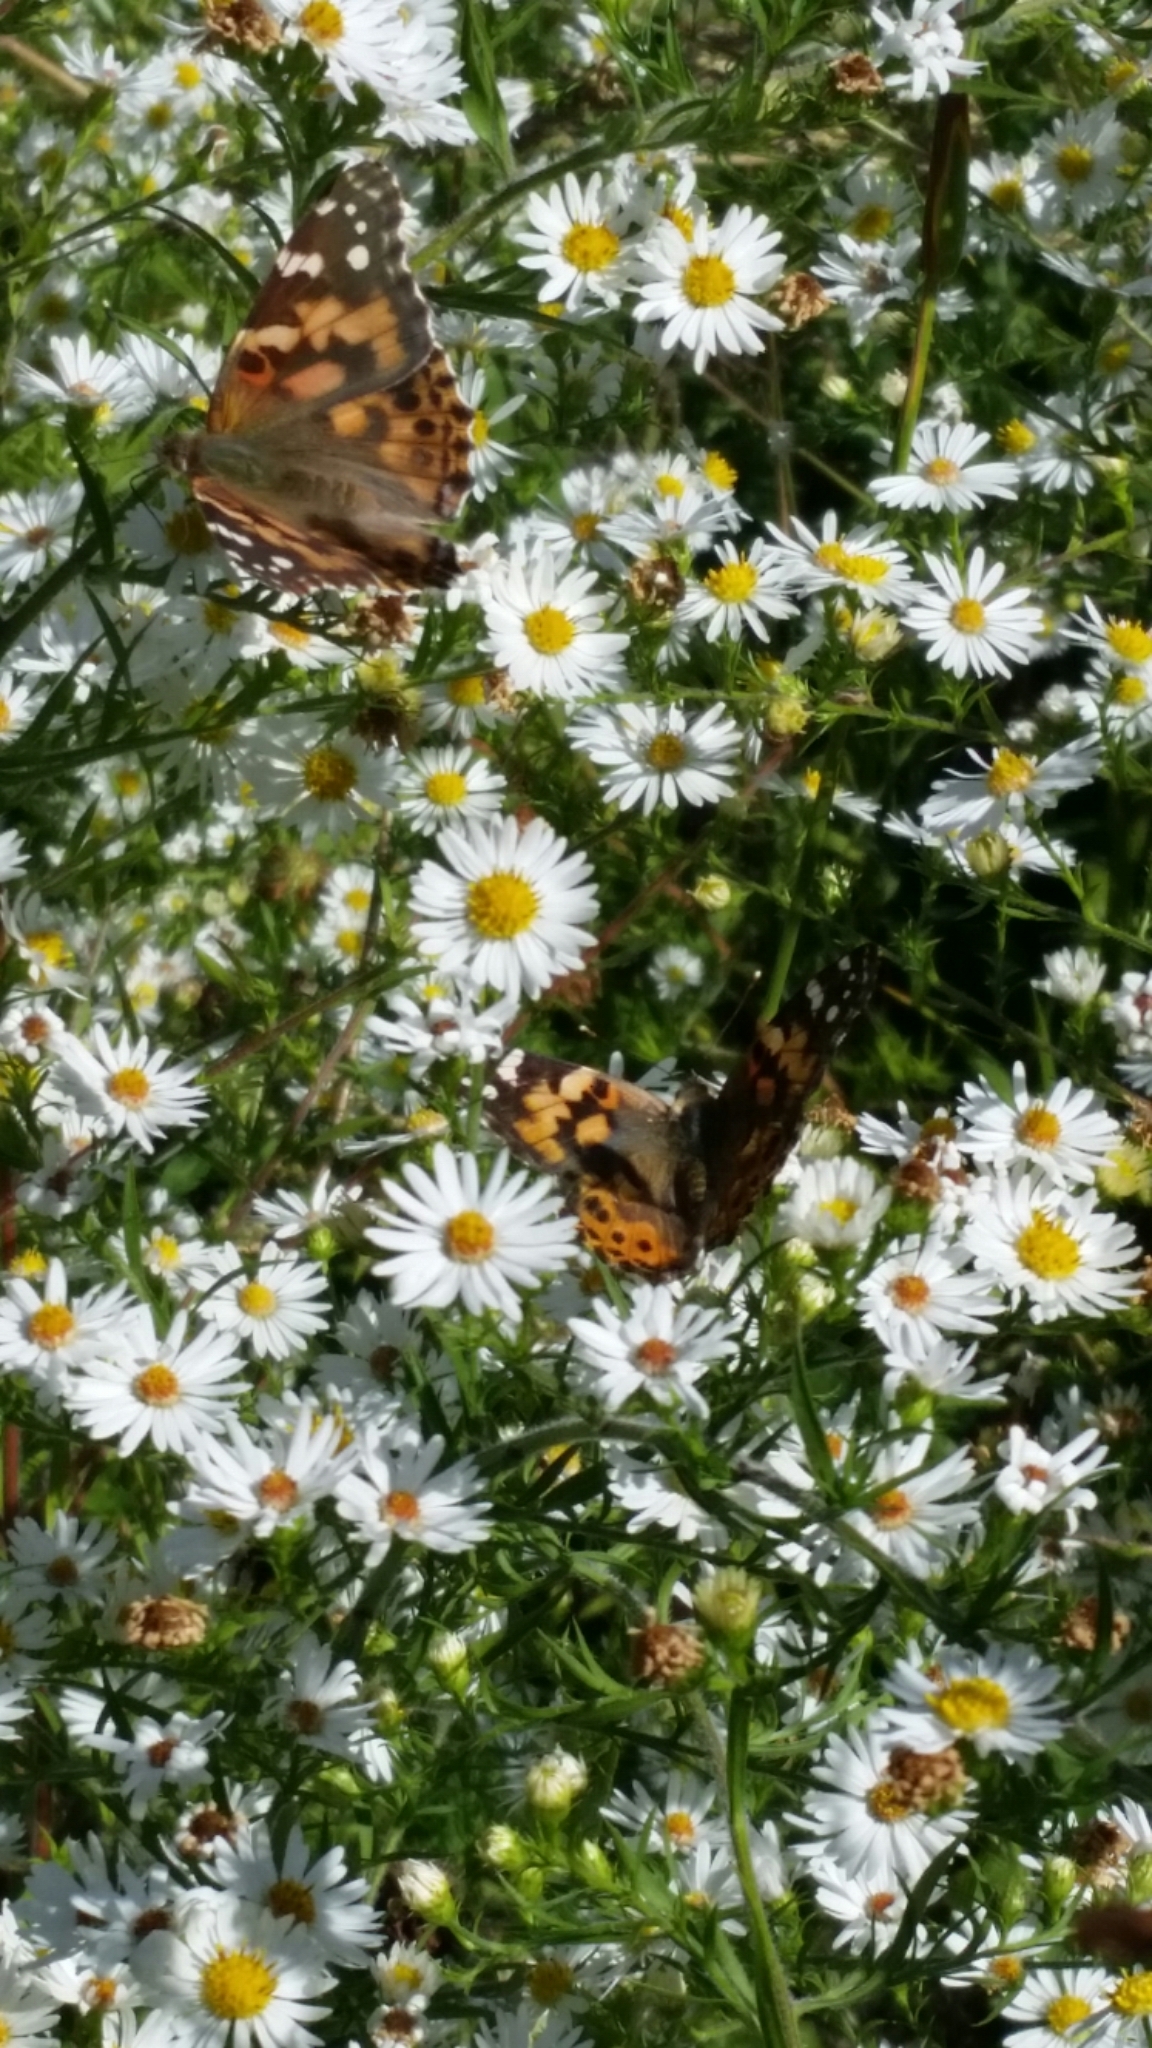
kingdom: Animalia
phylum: Arthropoda
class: Insecta
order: Lepidoptera
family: Nymphalidae
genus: Vanessa
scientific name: Vanessa cardui
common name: Painted lady
